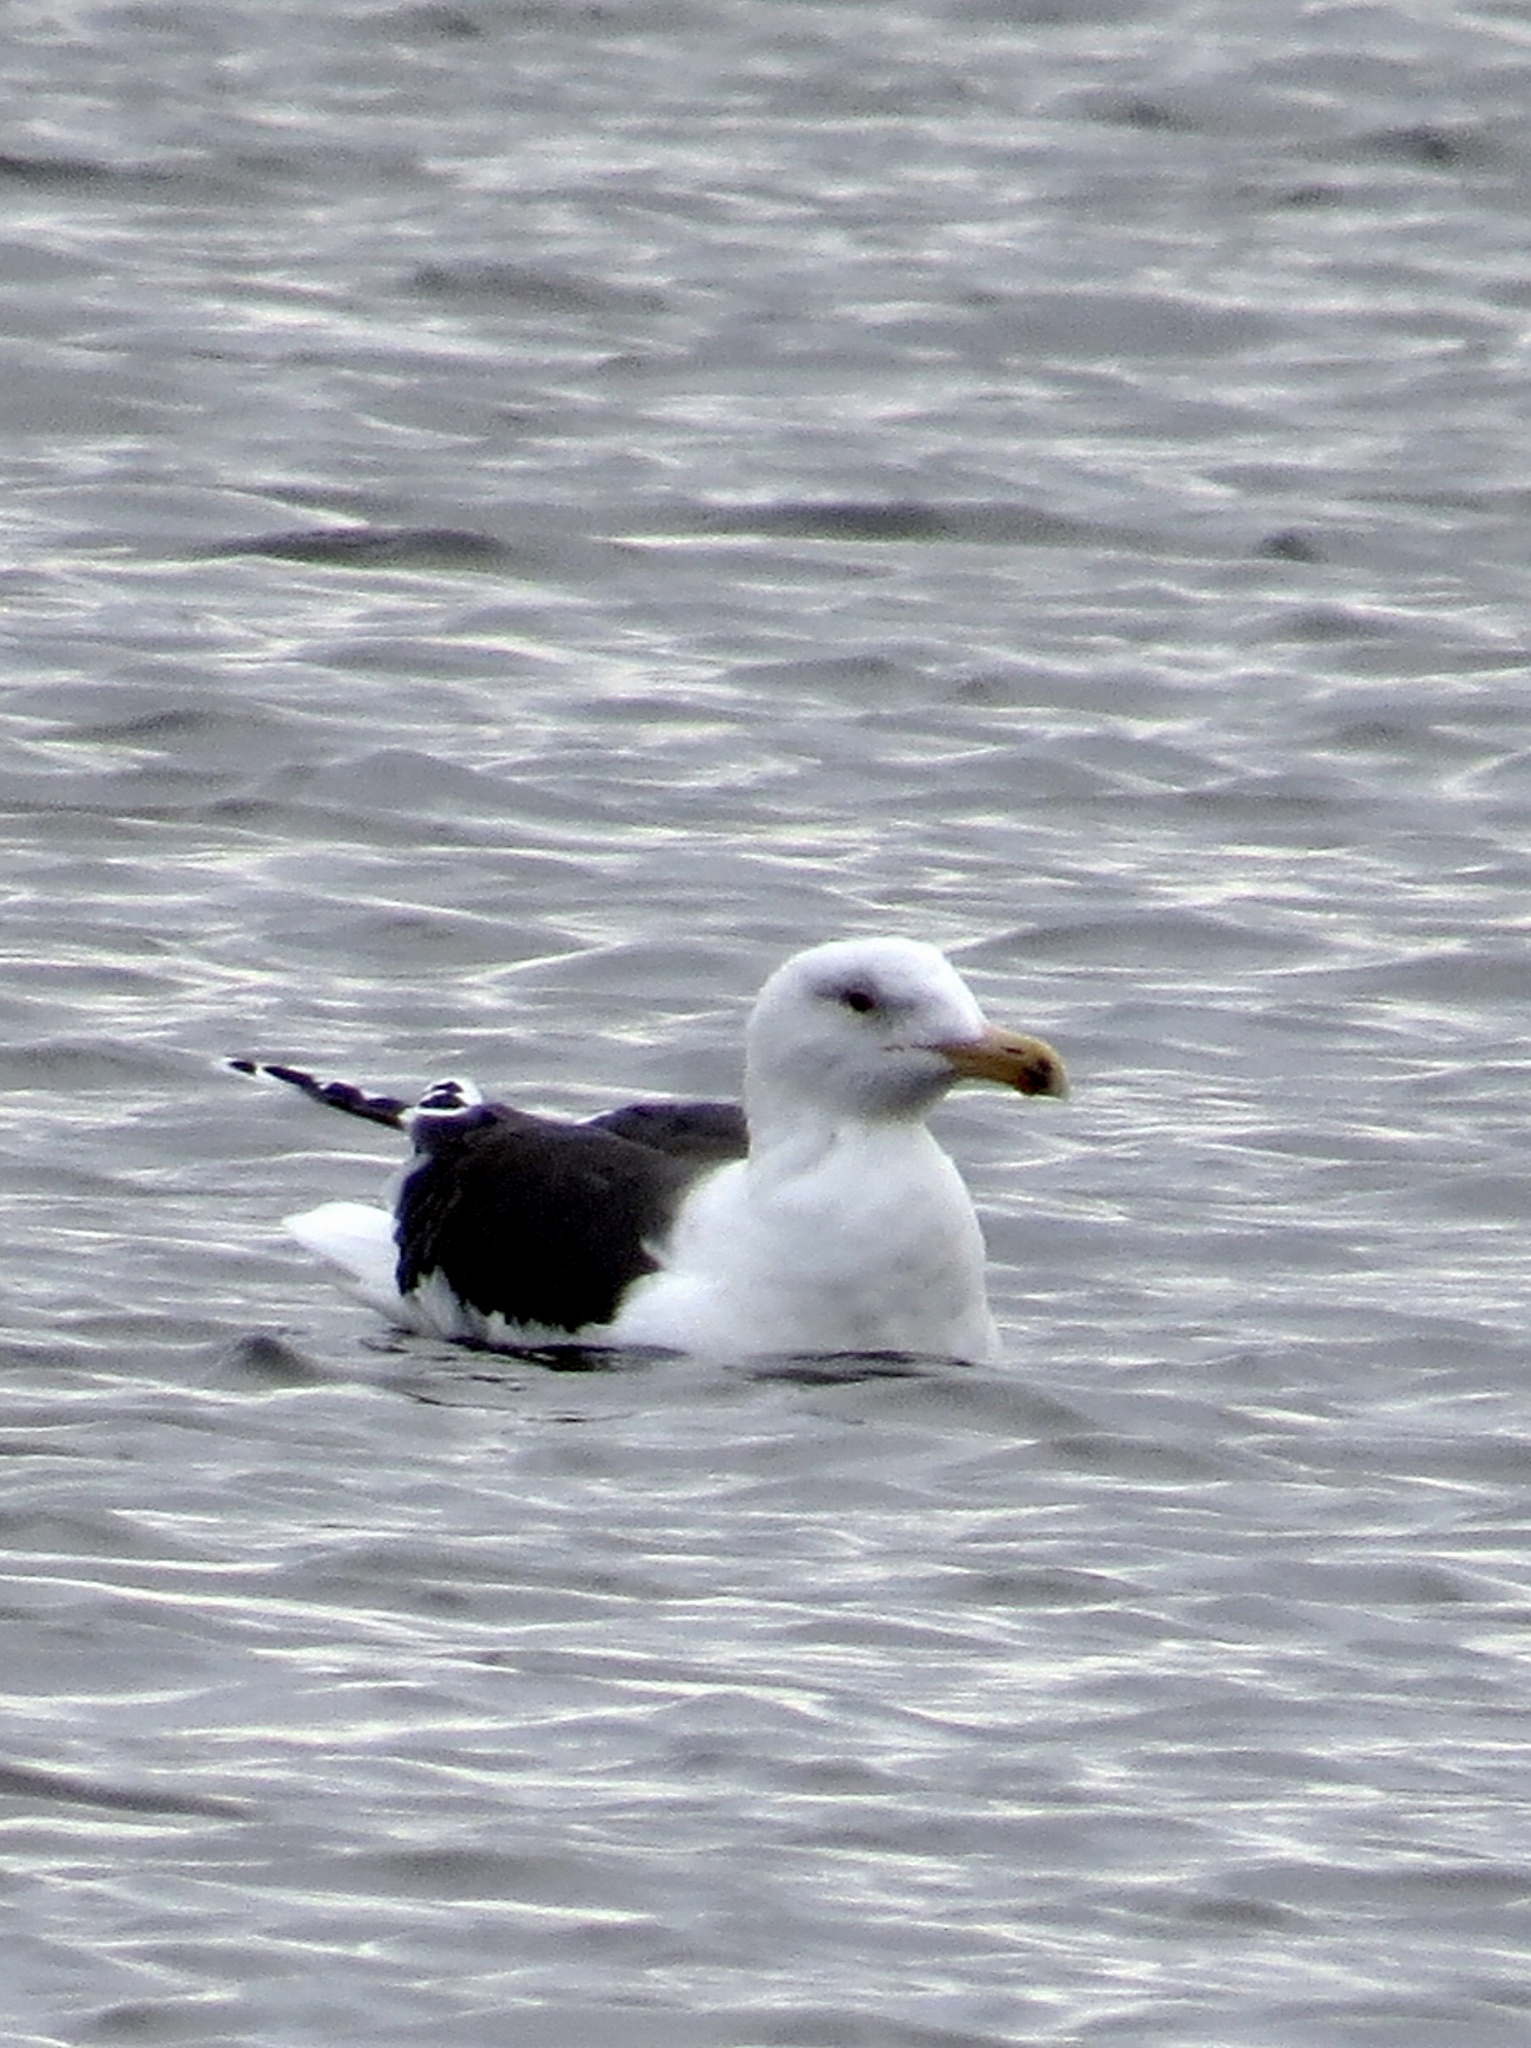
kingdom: Animalia
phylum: Chordata
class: Aves
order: Charadriiformes
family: Laridae
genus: Larus
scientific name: Larus marinus
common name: Great black-backed gull
